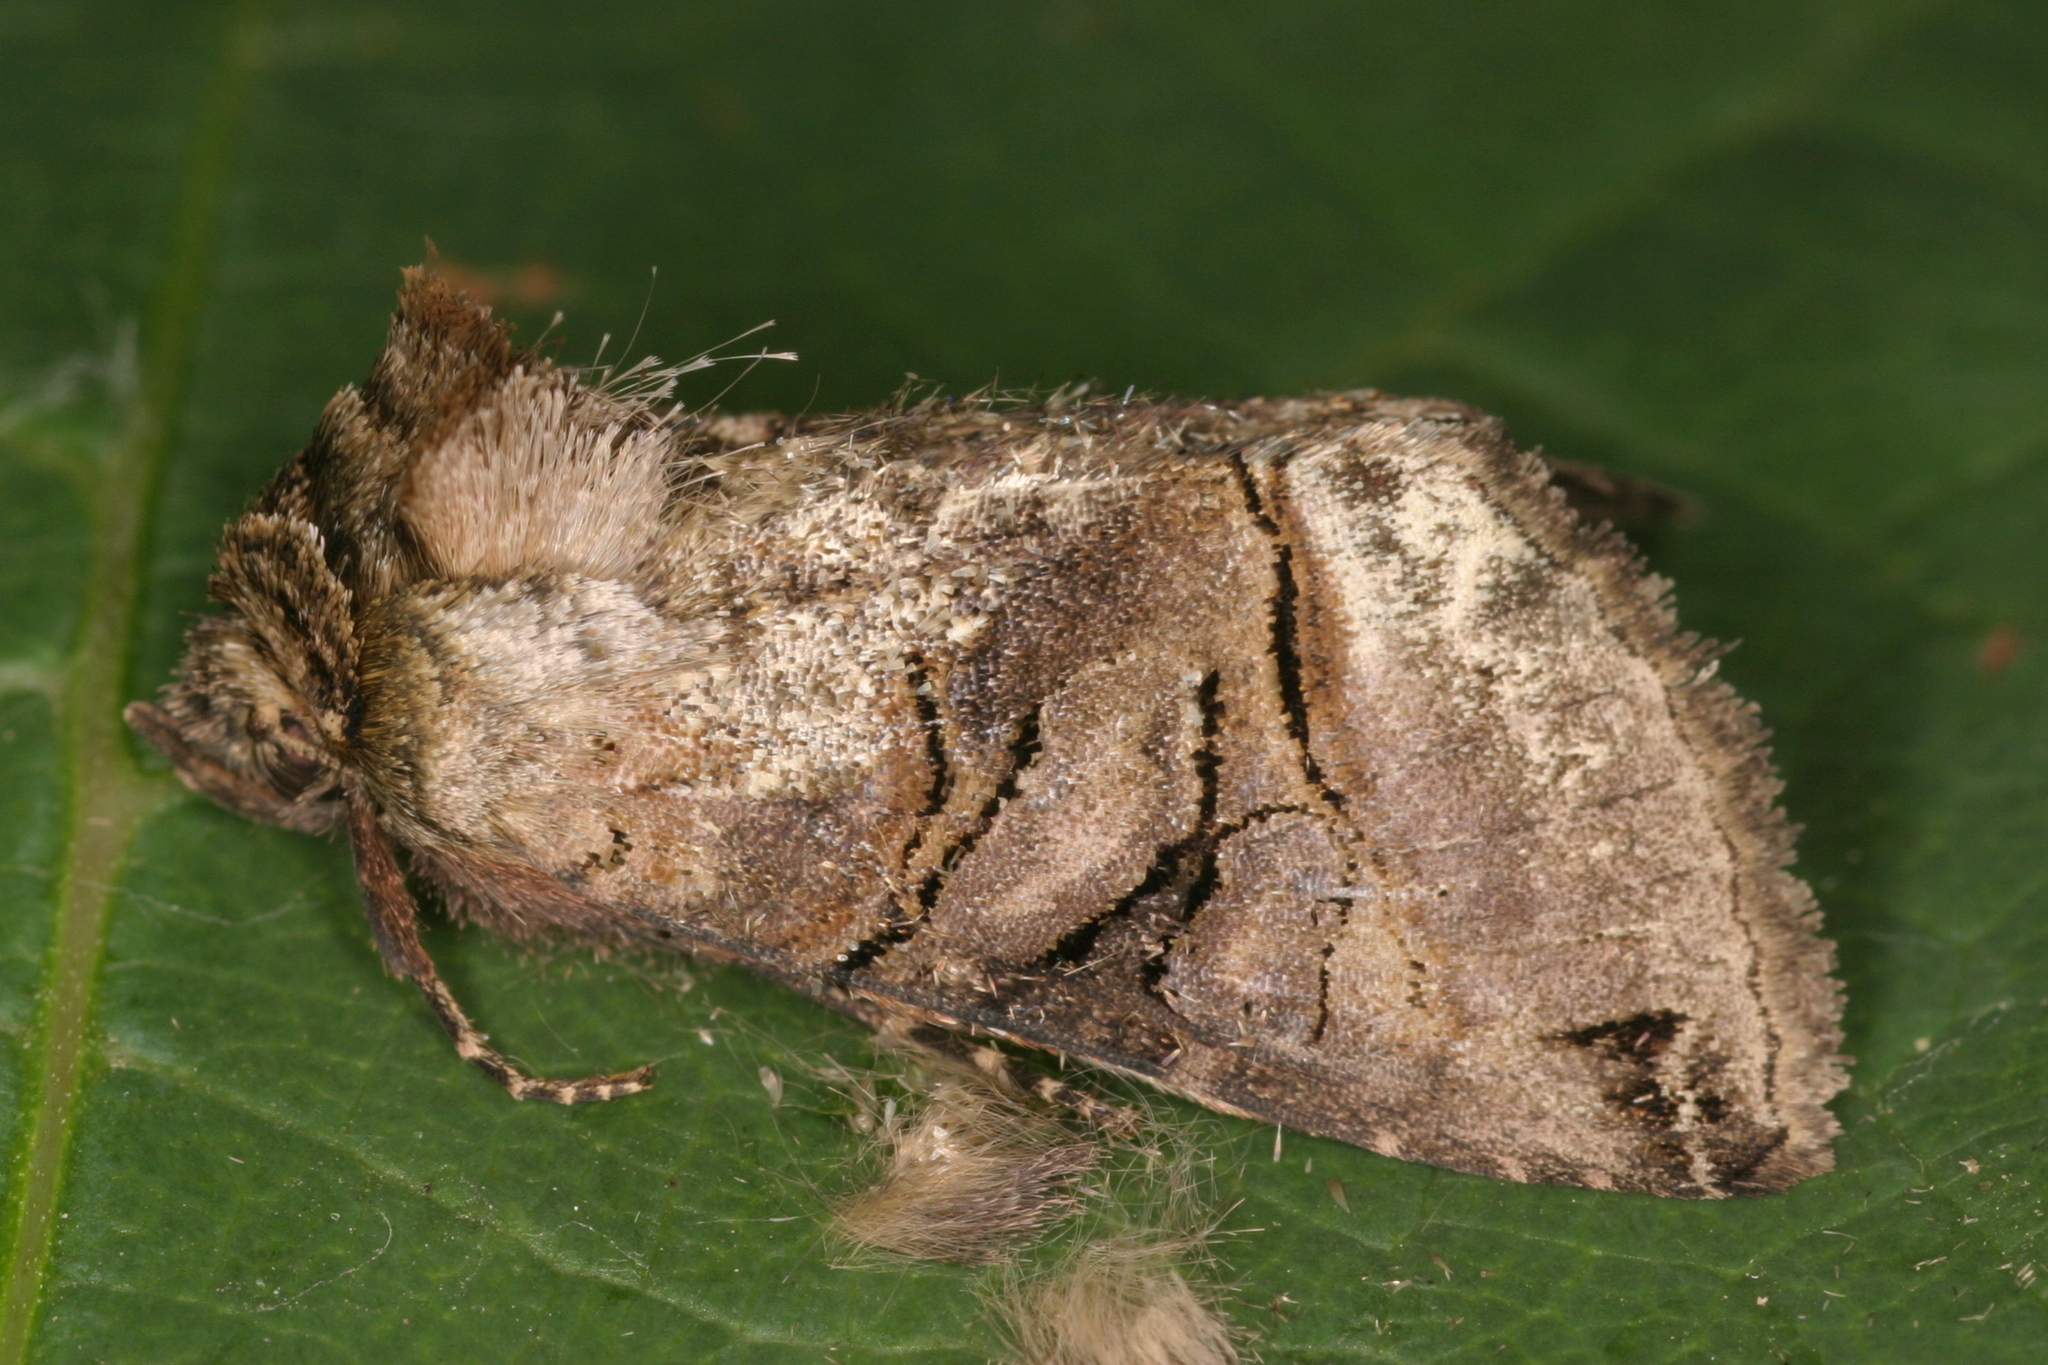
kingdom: Animalia
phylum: Arthropoda
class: Insecta
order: Lepidoptera
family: Noctuidae
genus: Abrostola
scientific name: Abrostola tripartita
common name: Spectacle
